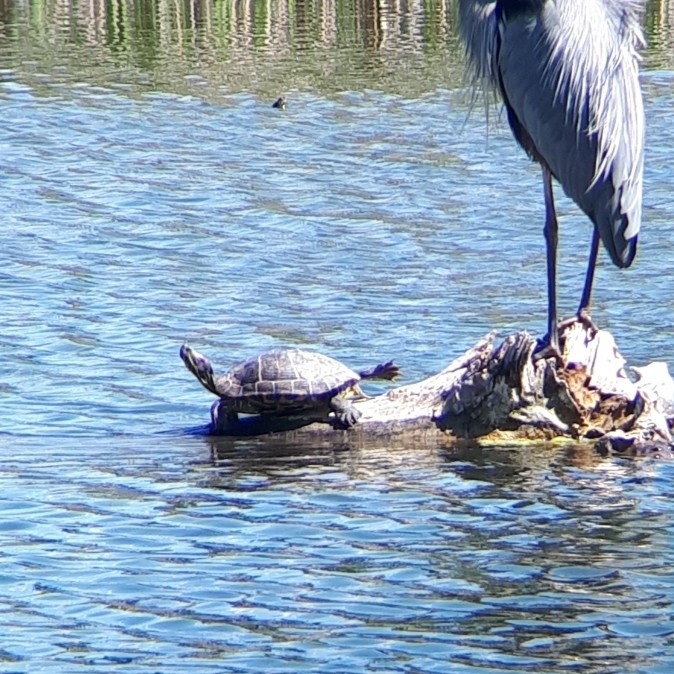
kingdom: Animalia
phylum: Chordata
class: Testudines
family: Emydidae
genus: Trachemys
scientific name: Trachemys scripta
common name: Slider
